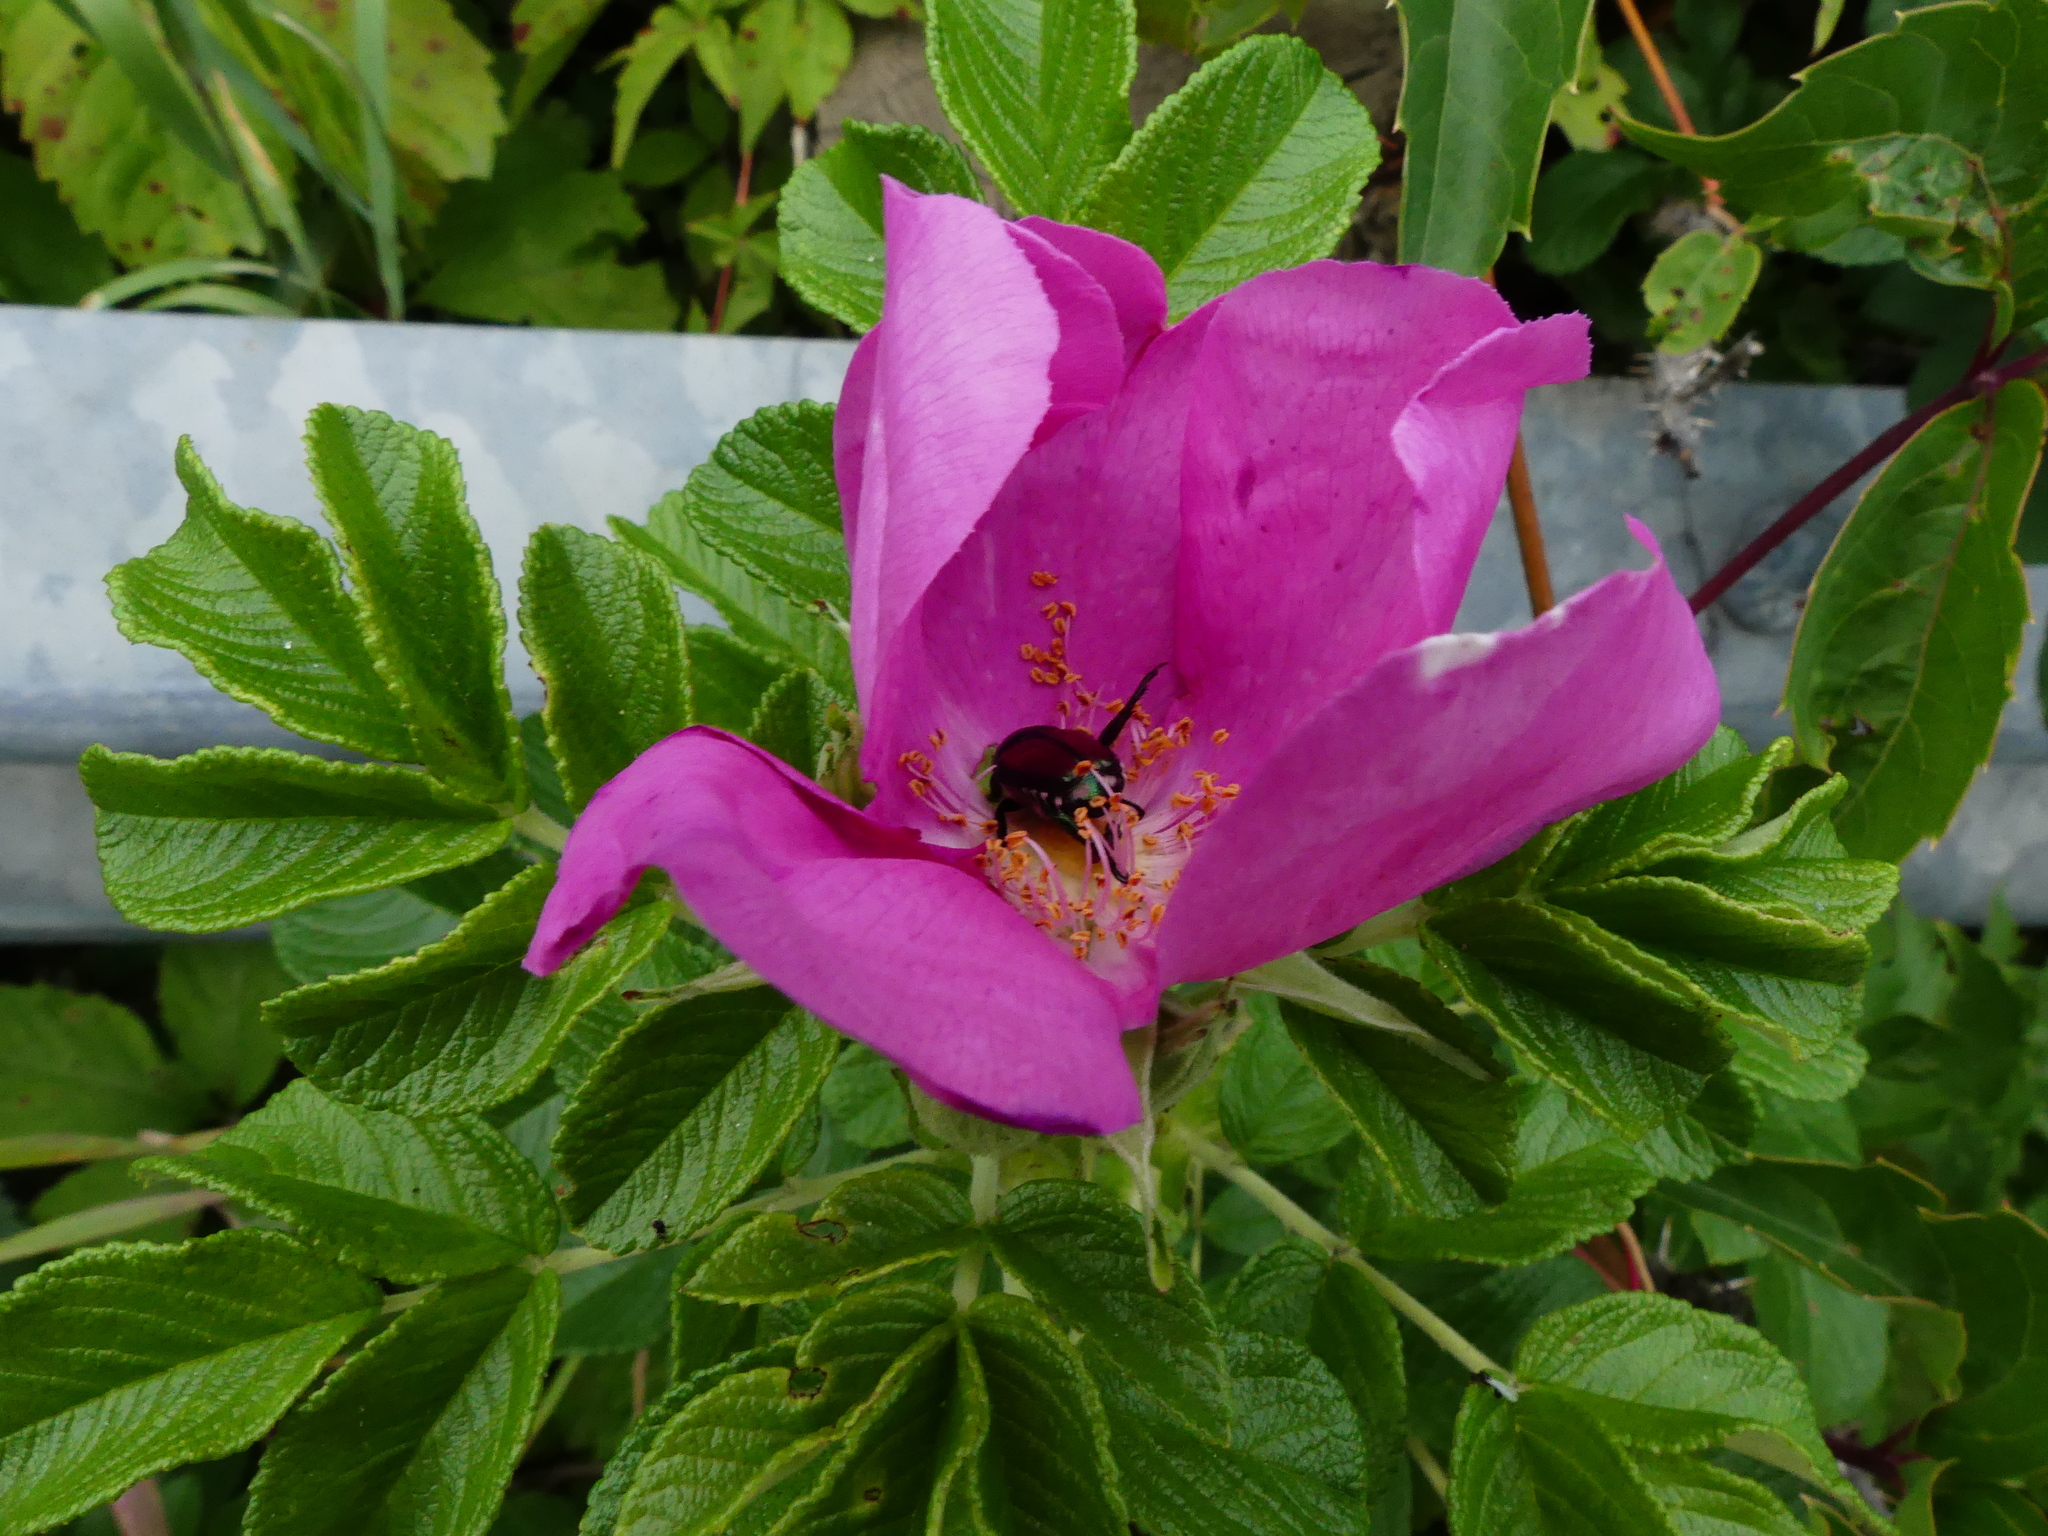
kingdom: Plantae
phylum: Tracheophyta
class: Magnoliopsida
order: Rosales
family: Rosaceae
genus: Rosa
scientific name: Rosa rugosa
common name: Japanese rose
